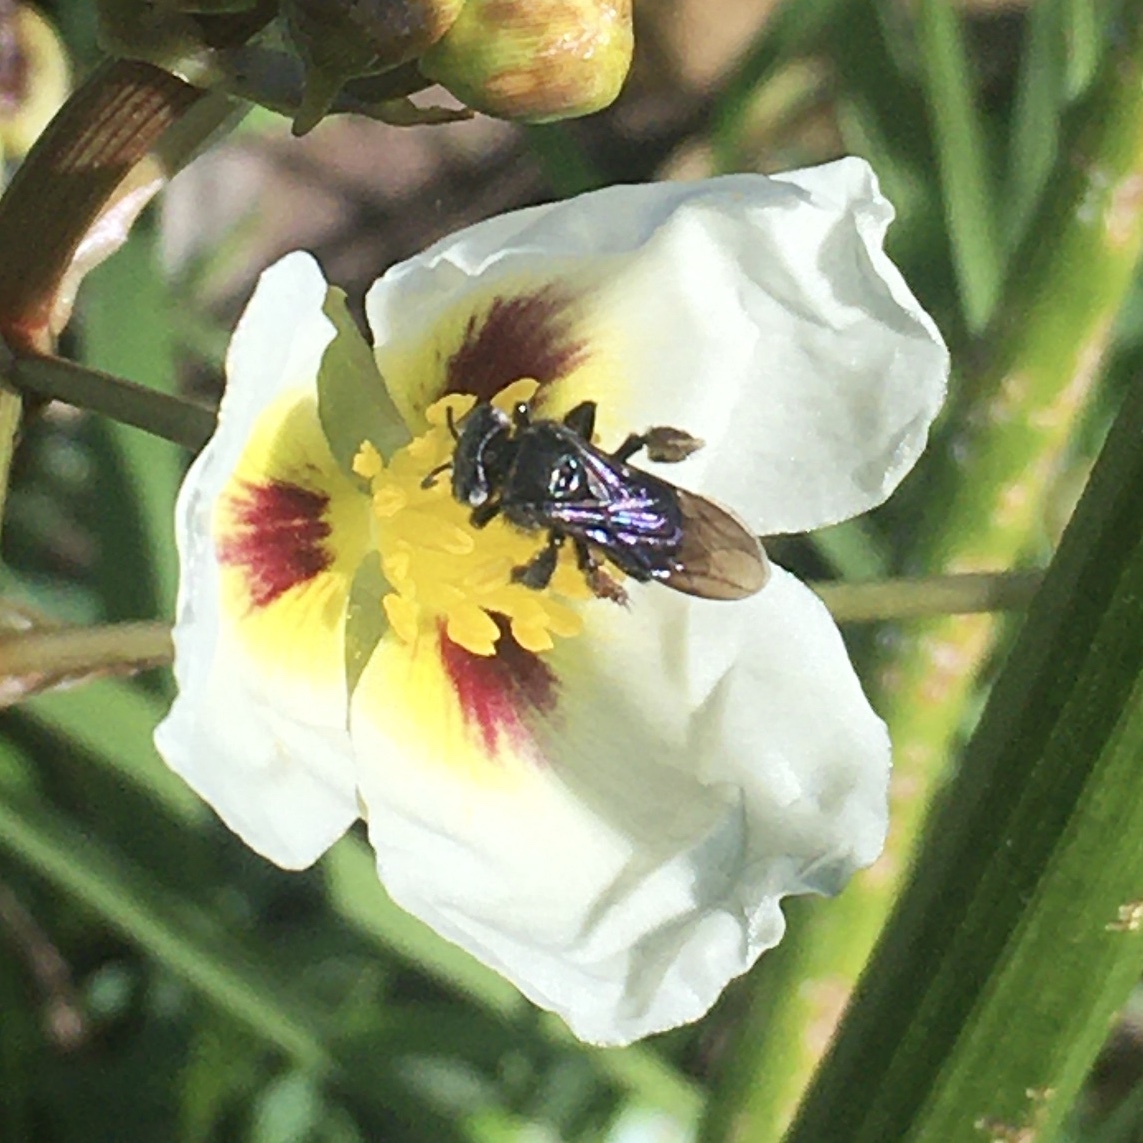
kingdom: Plantae
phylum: Tracheophyta
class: Liliopsida
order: Alismatales
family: Alismataceae
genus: Sagittaria
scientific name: Sagittaria montevidensis
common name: Giant arrowhead
